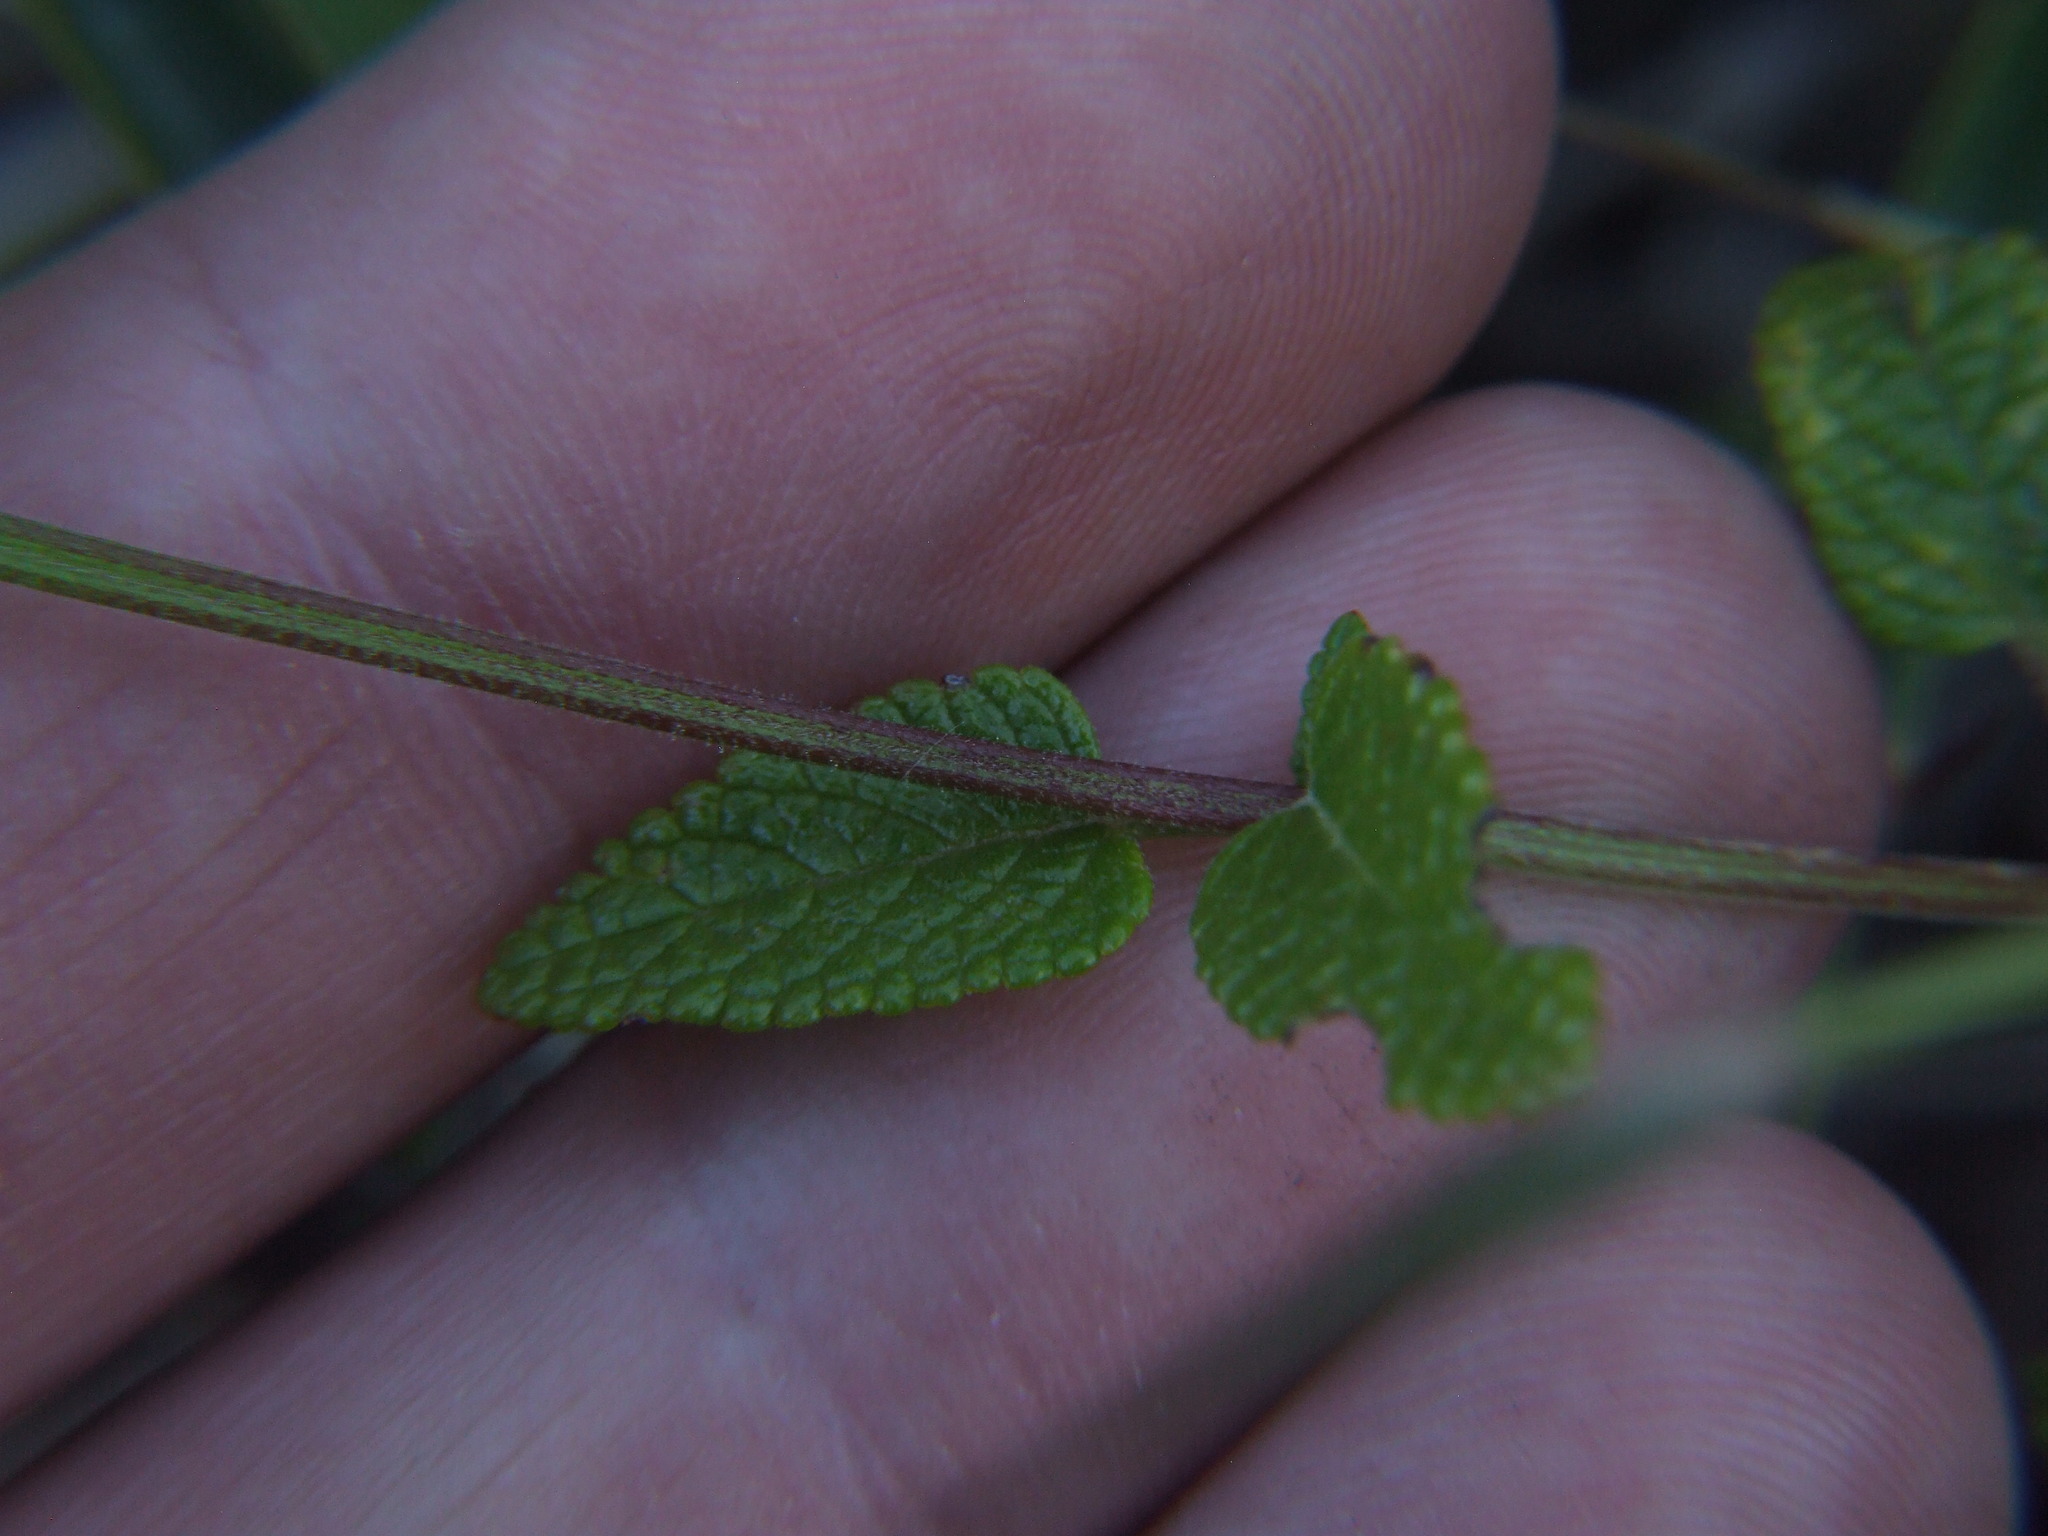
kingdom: Plantae
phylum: Tracheophyta
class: Magnoliopsida
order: Lamiales
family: Lamiaceae
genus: Salvia
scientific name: Salvia oppositiflora
